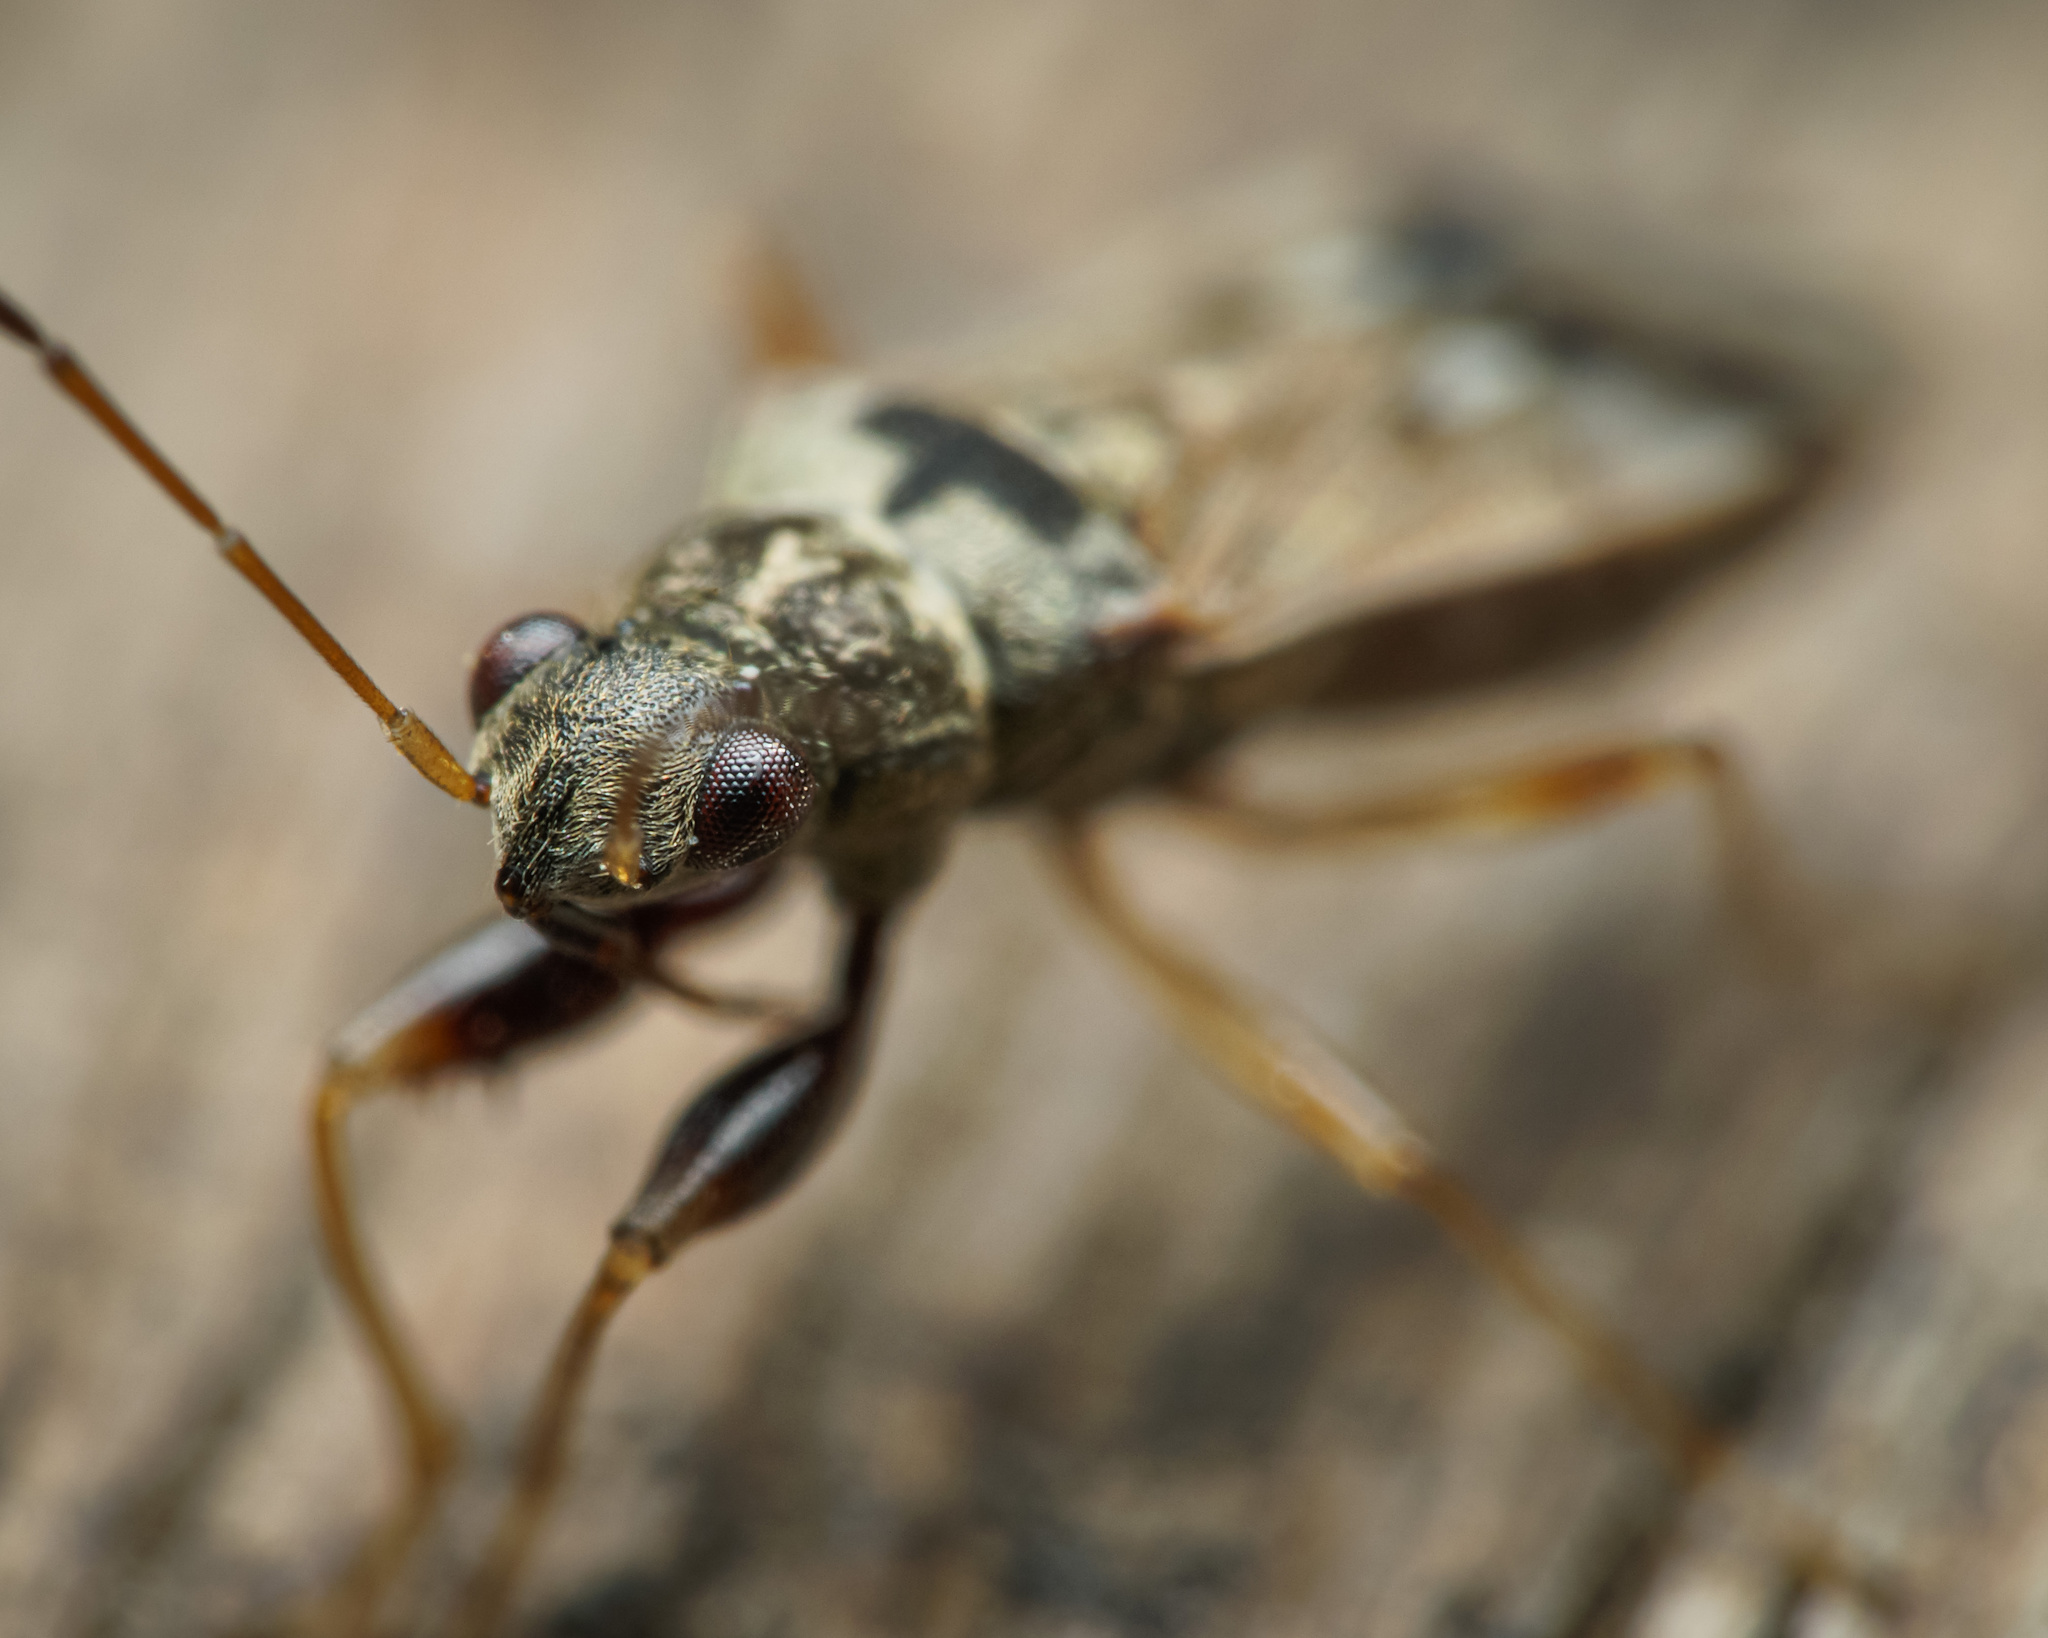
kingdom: Animalia
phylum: Arthropoda
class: Insecta
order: Hemiptera
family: Rhyparochromidae
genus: Pseudopachybrachius
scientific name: Pseudopachybrachius guttus
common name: Seed bug
